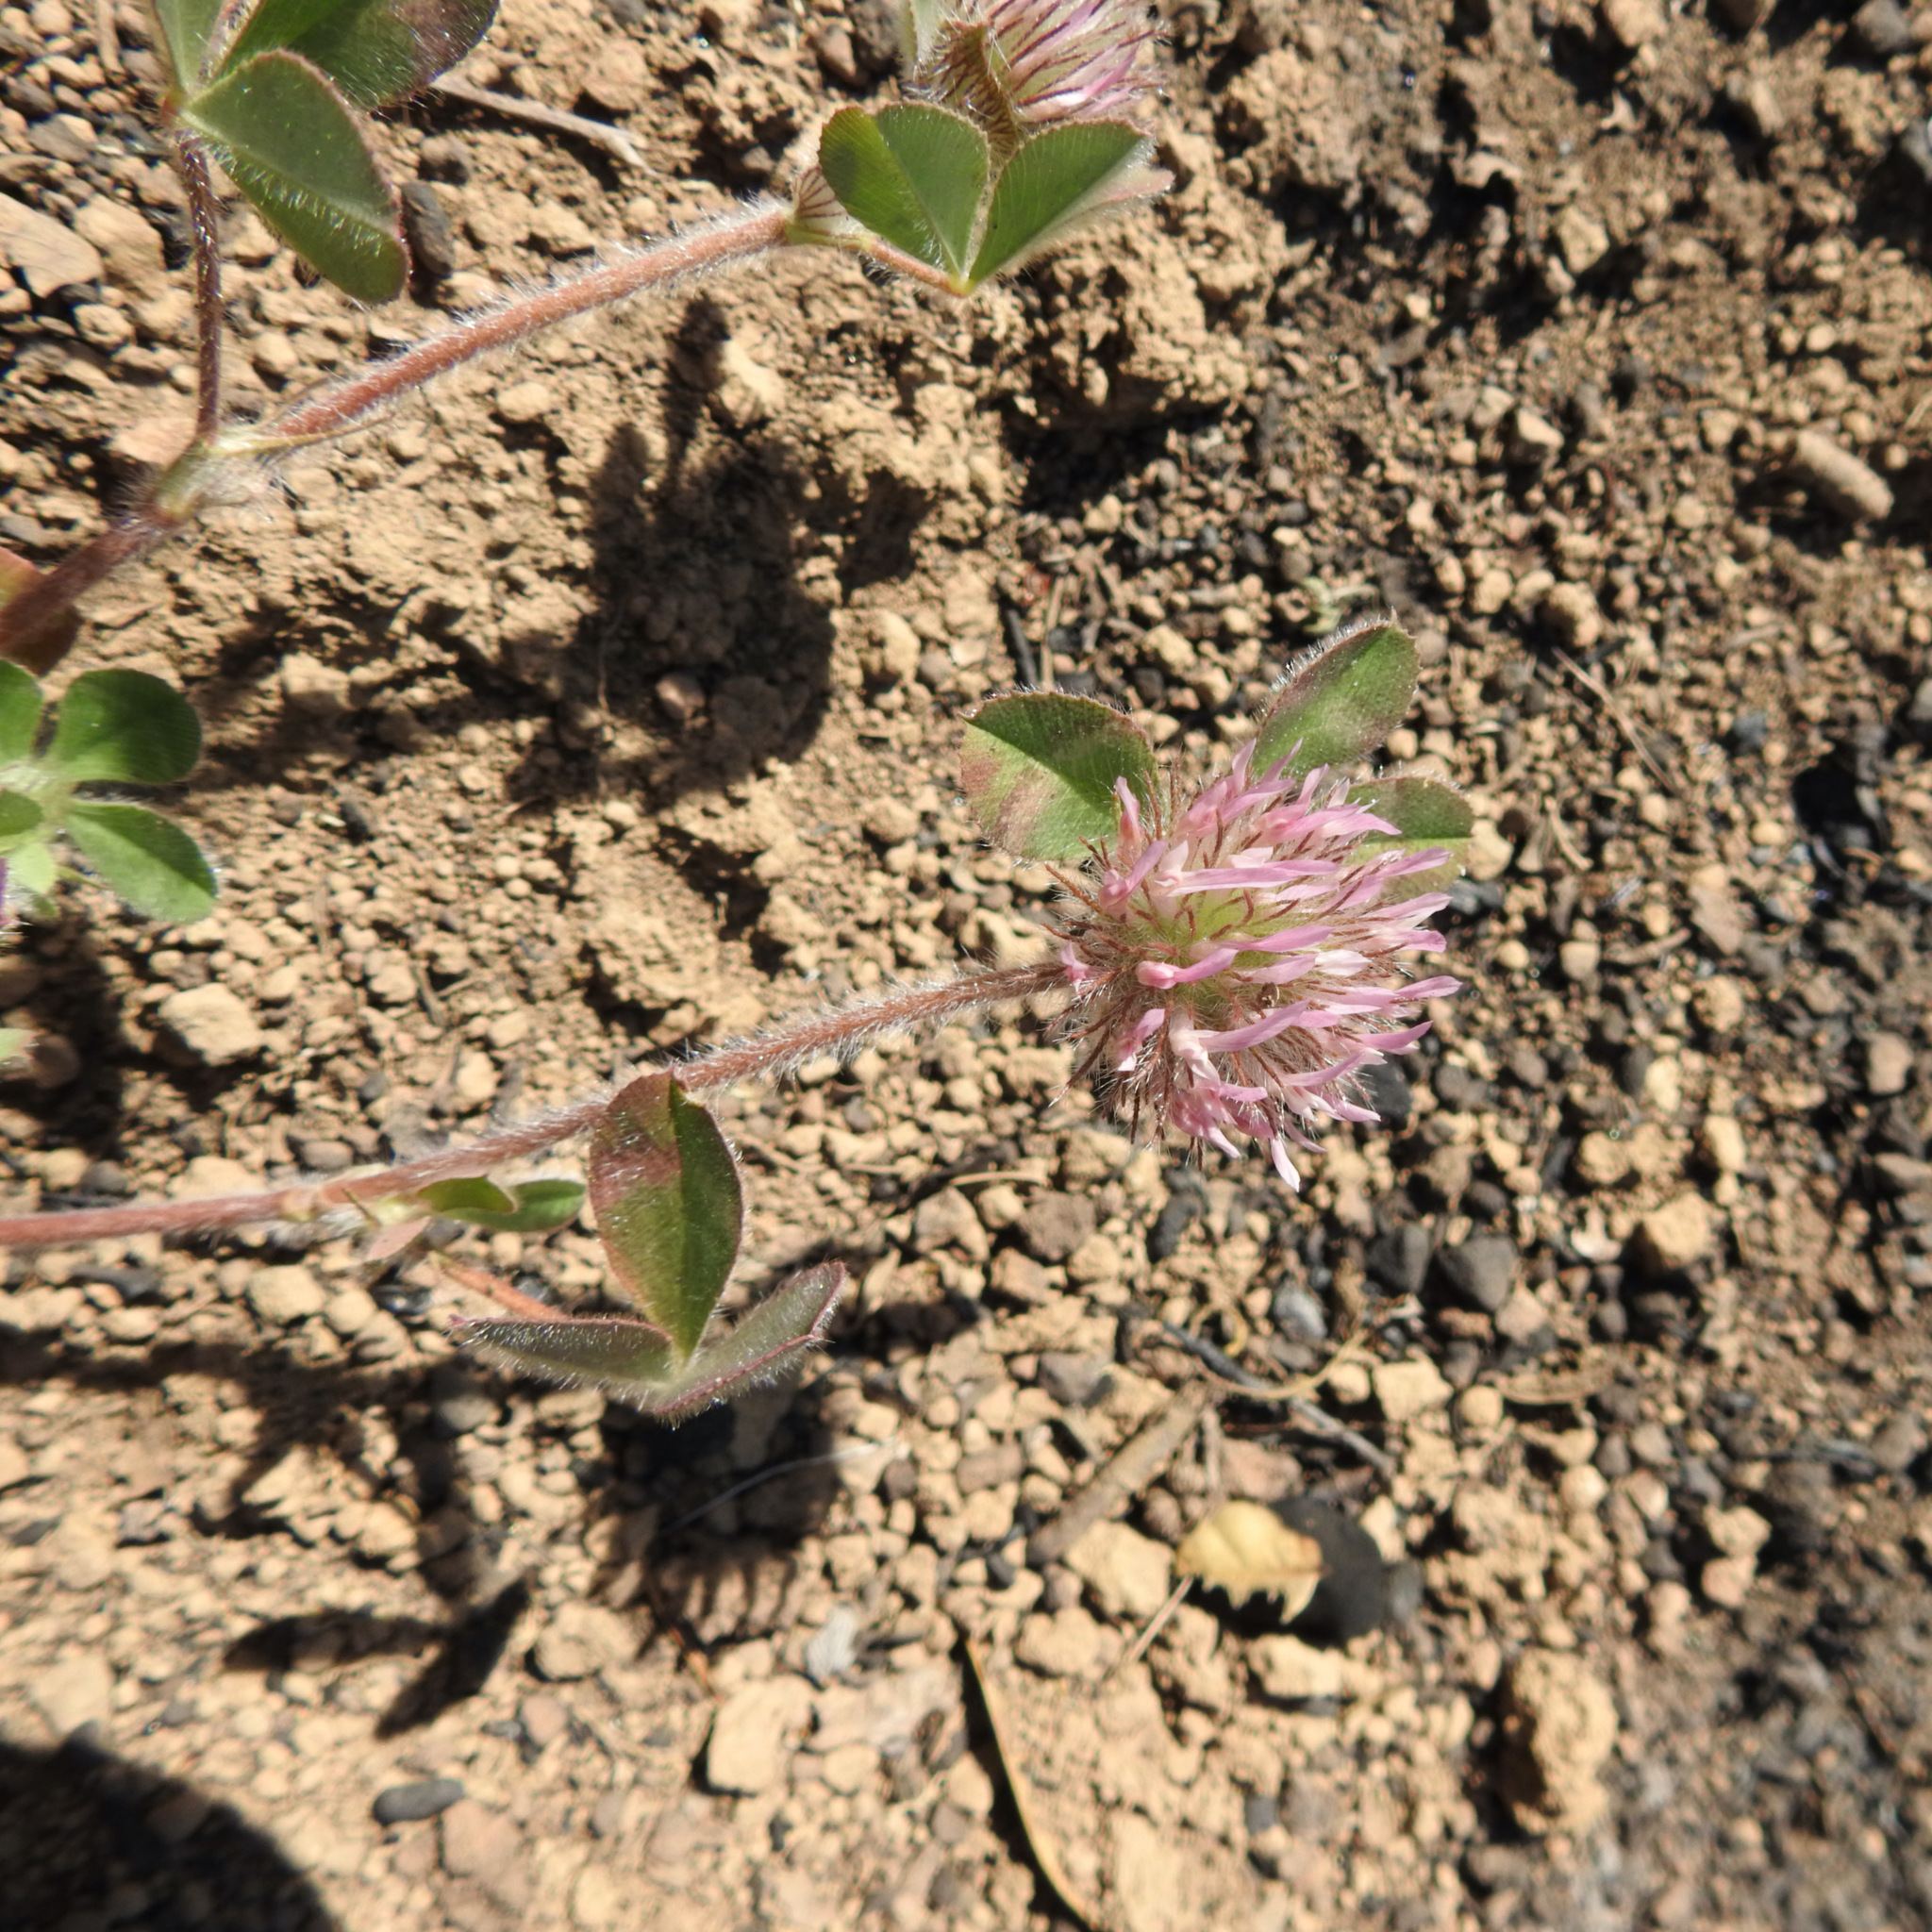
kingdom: Plantae
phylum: Tracheophyta
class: Magnoliopsida
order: Fabales
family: Fabaceae
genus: Trifolium
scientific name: Trifolium hirtum
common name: Rose clover
